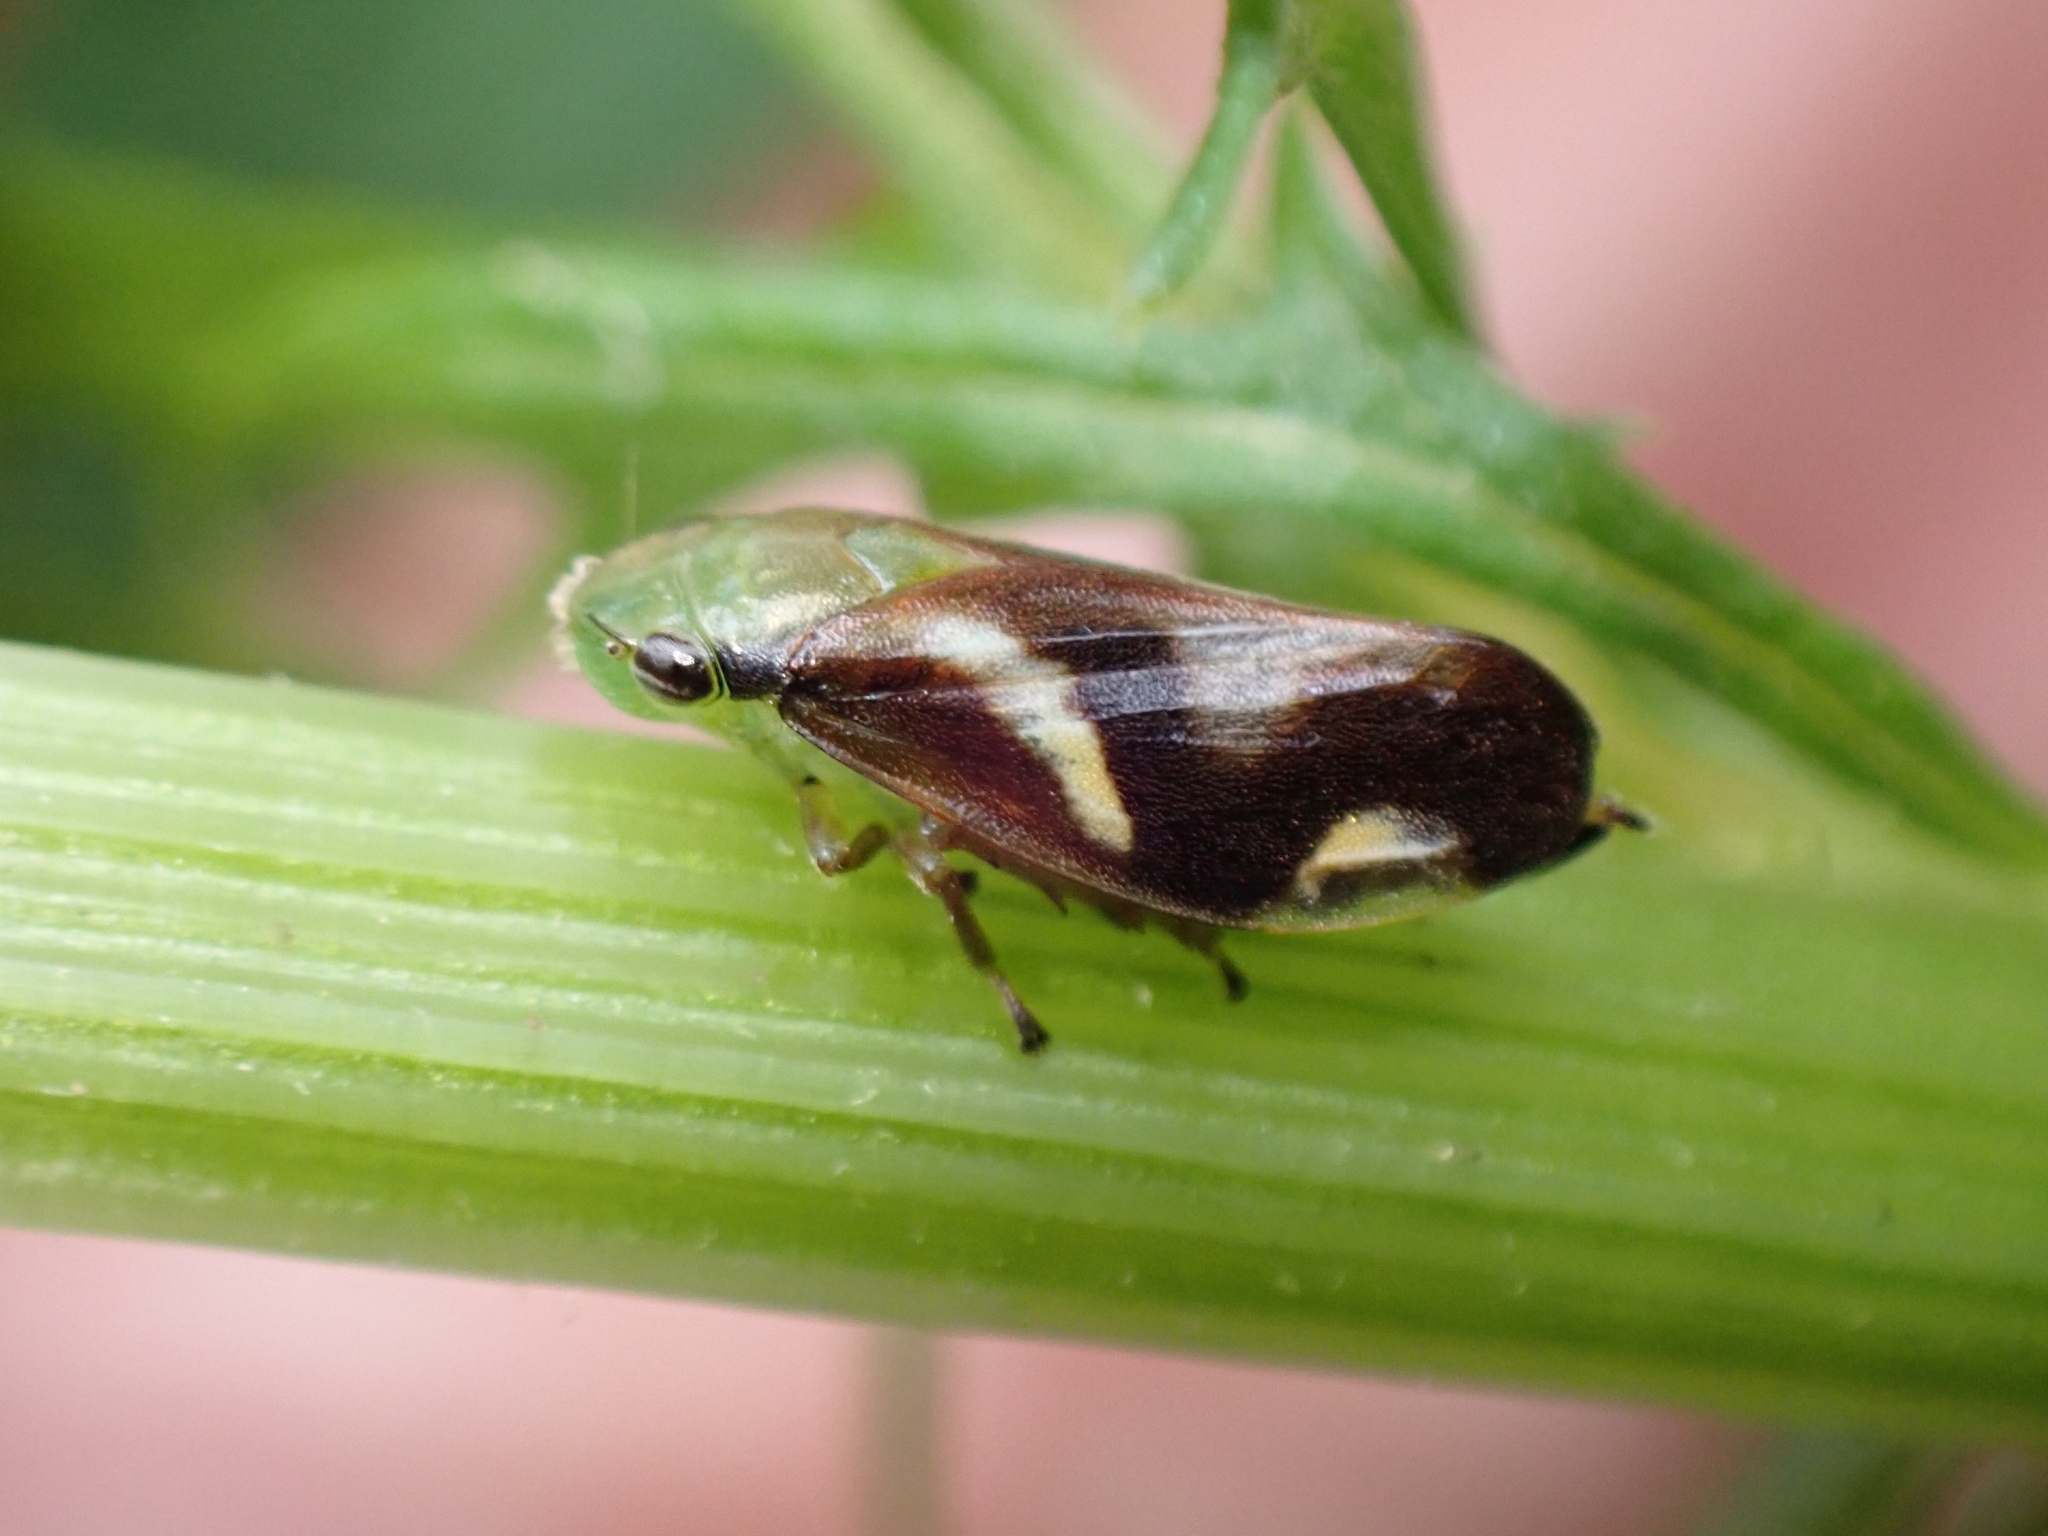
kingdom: Animalia
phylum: Arthropoda
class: Insecta
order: Hemiptera
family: Aphrophoridae
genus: Carystoterpa
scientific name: Carystoterpa fingens
